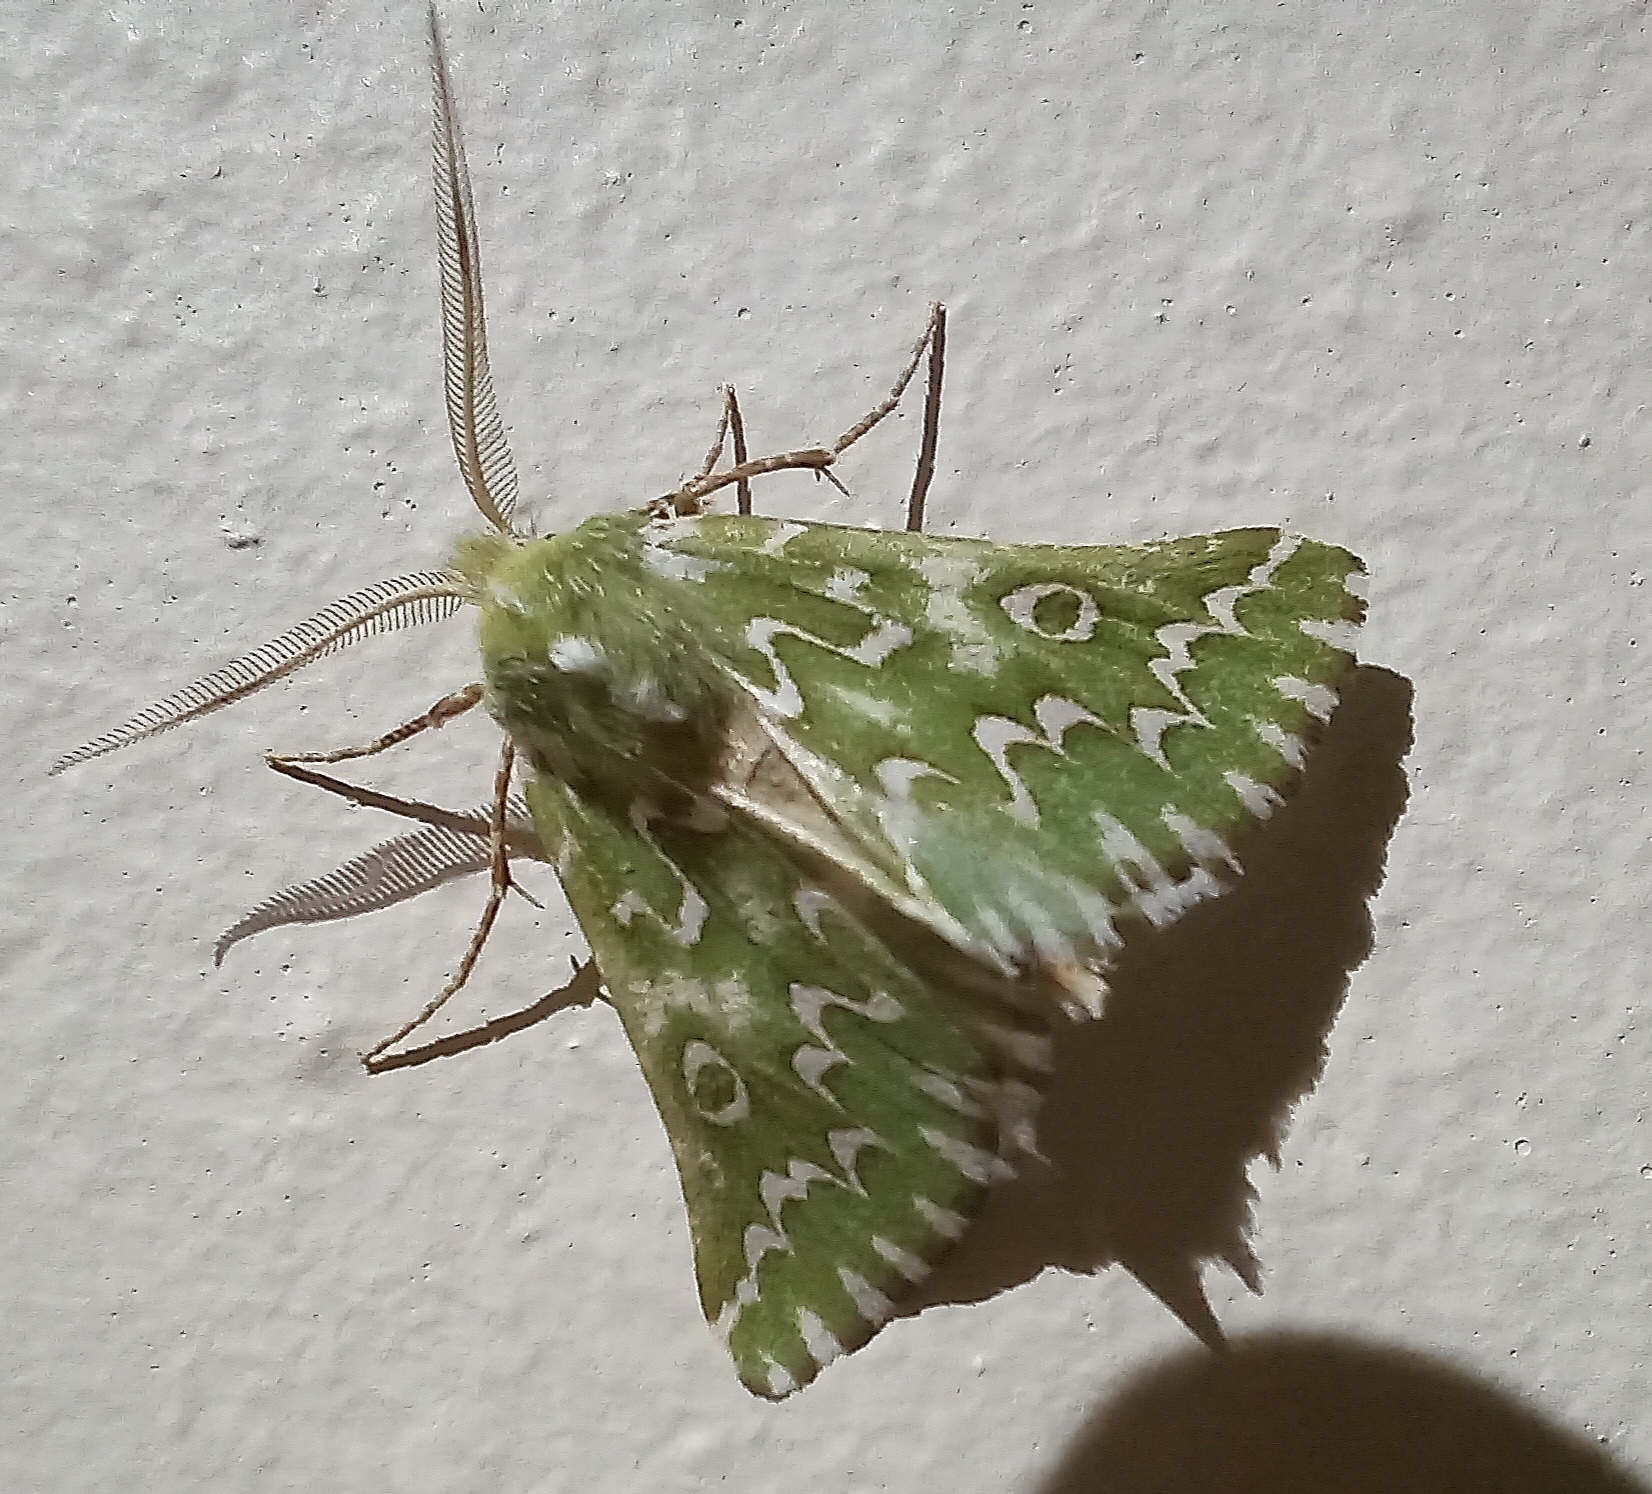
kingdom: Animalia
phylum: Arthropoda
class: Insecta
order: Lepidoptera
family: Geometridae
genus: Axiodes
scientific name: Axiodes bifasciata
